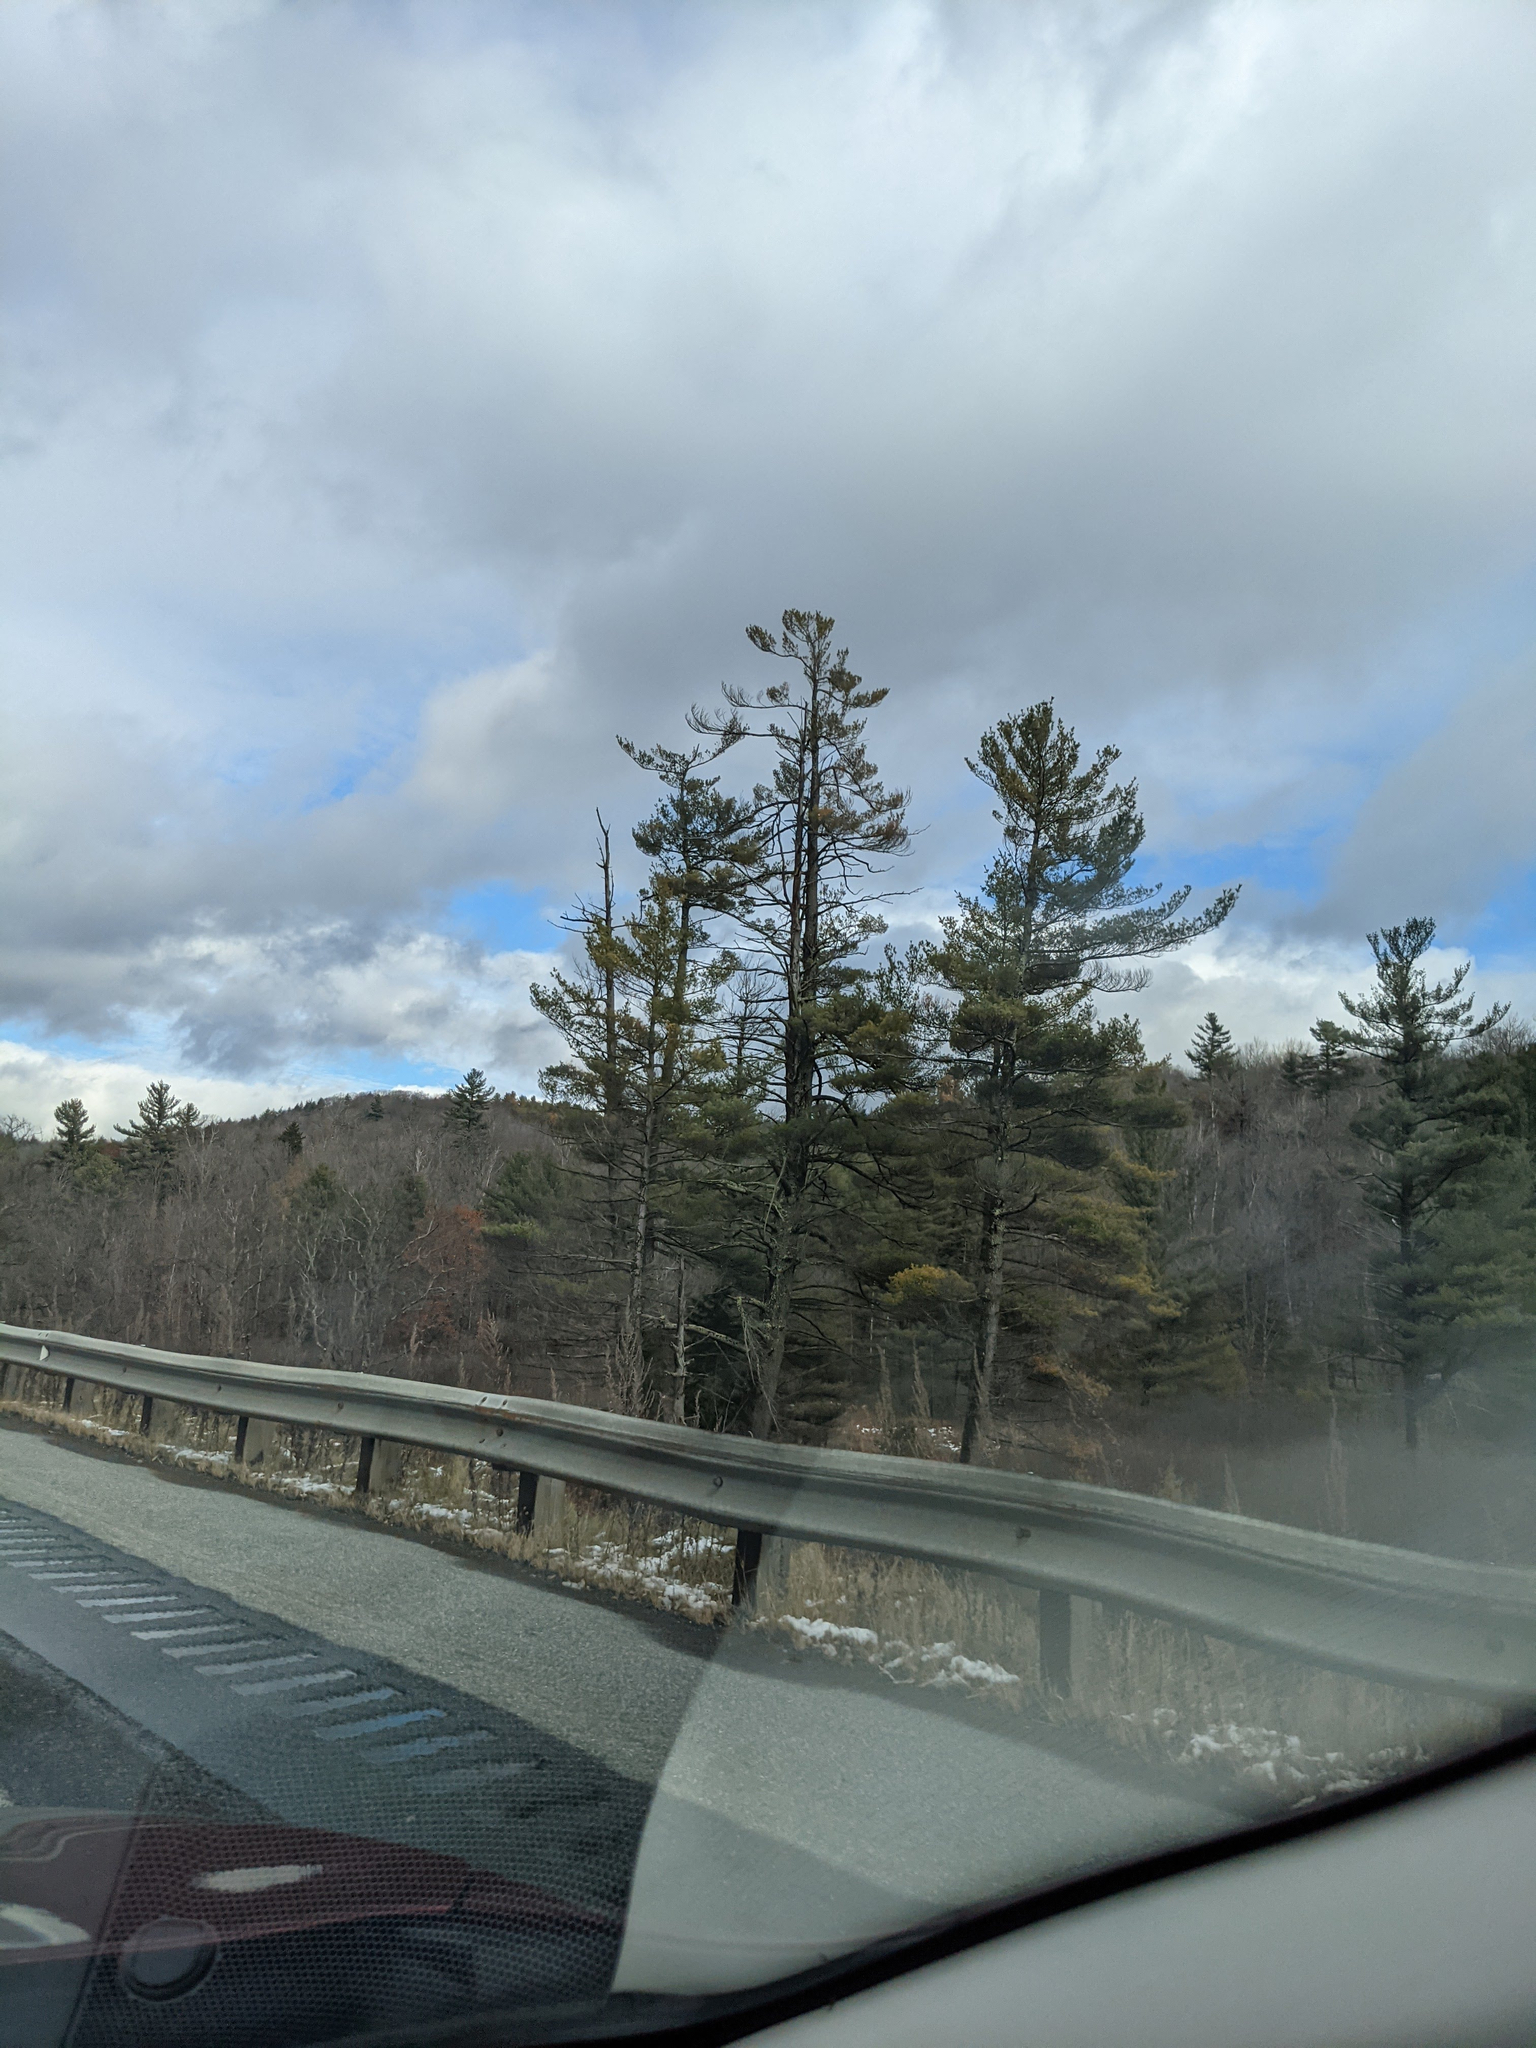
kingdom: Plantae
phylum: Tracheophyta
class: Pinopsida
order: Pinales
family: Pinaceae
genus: Pinus
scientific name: Pinus strobus
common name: Weymouth pine
